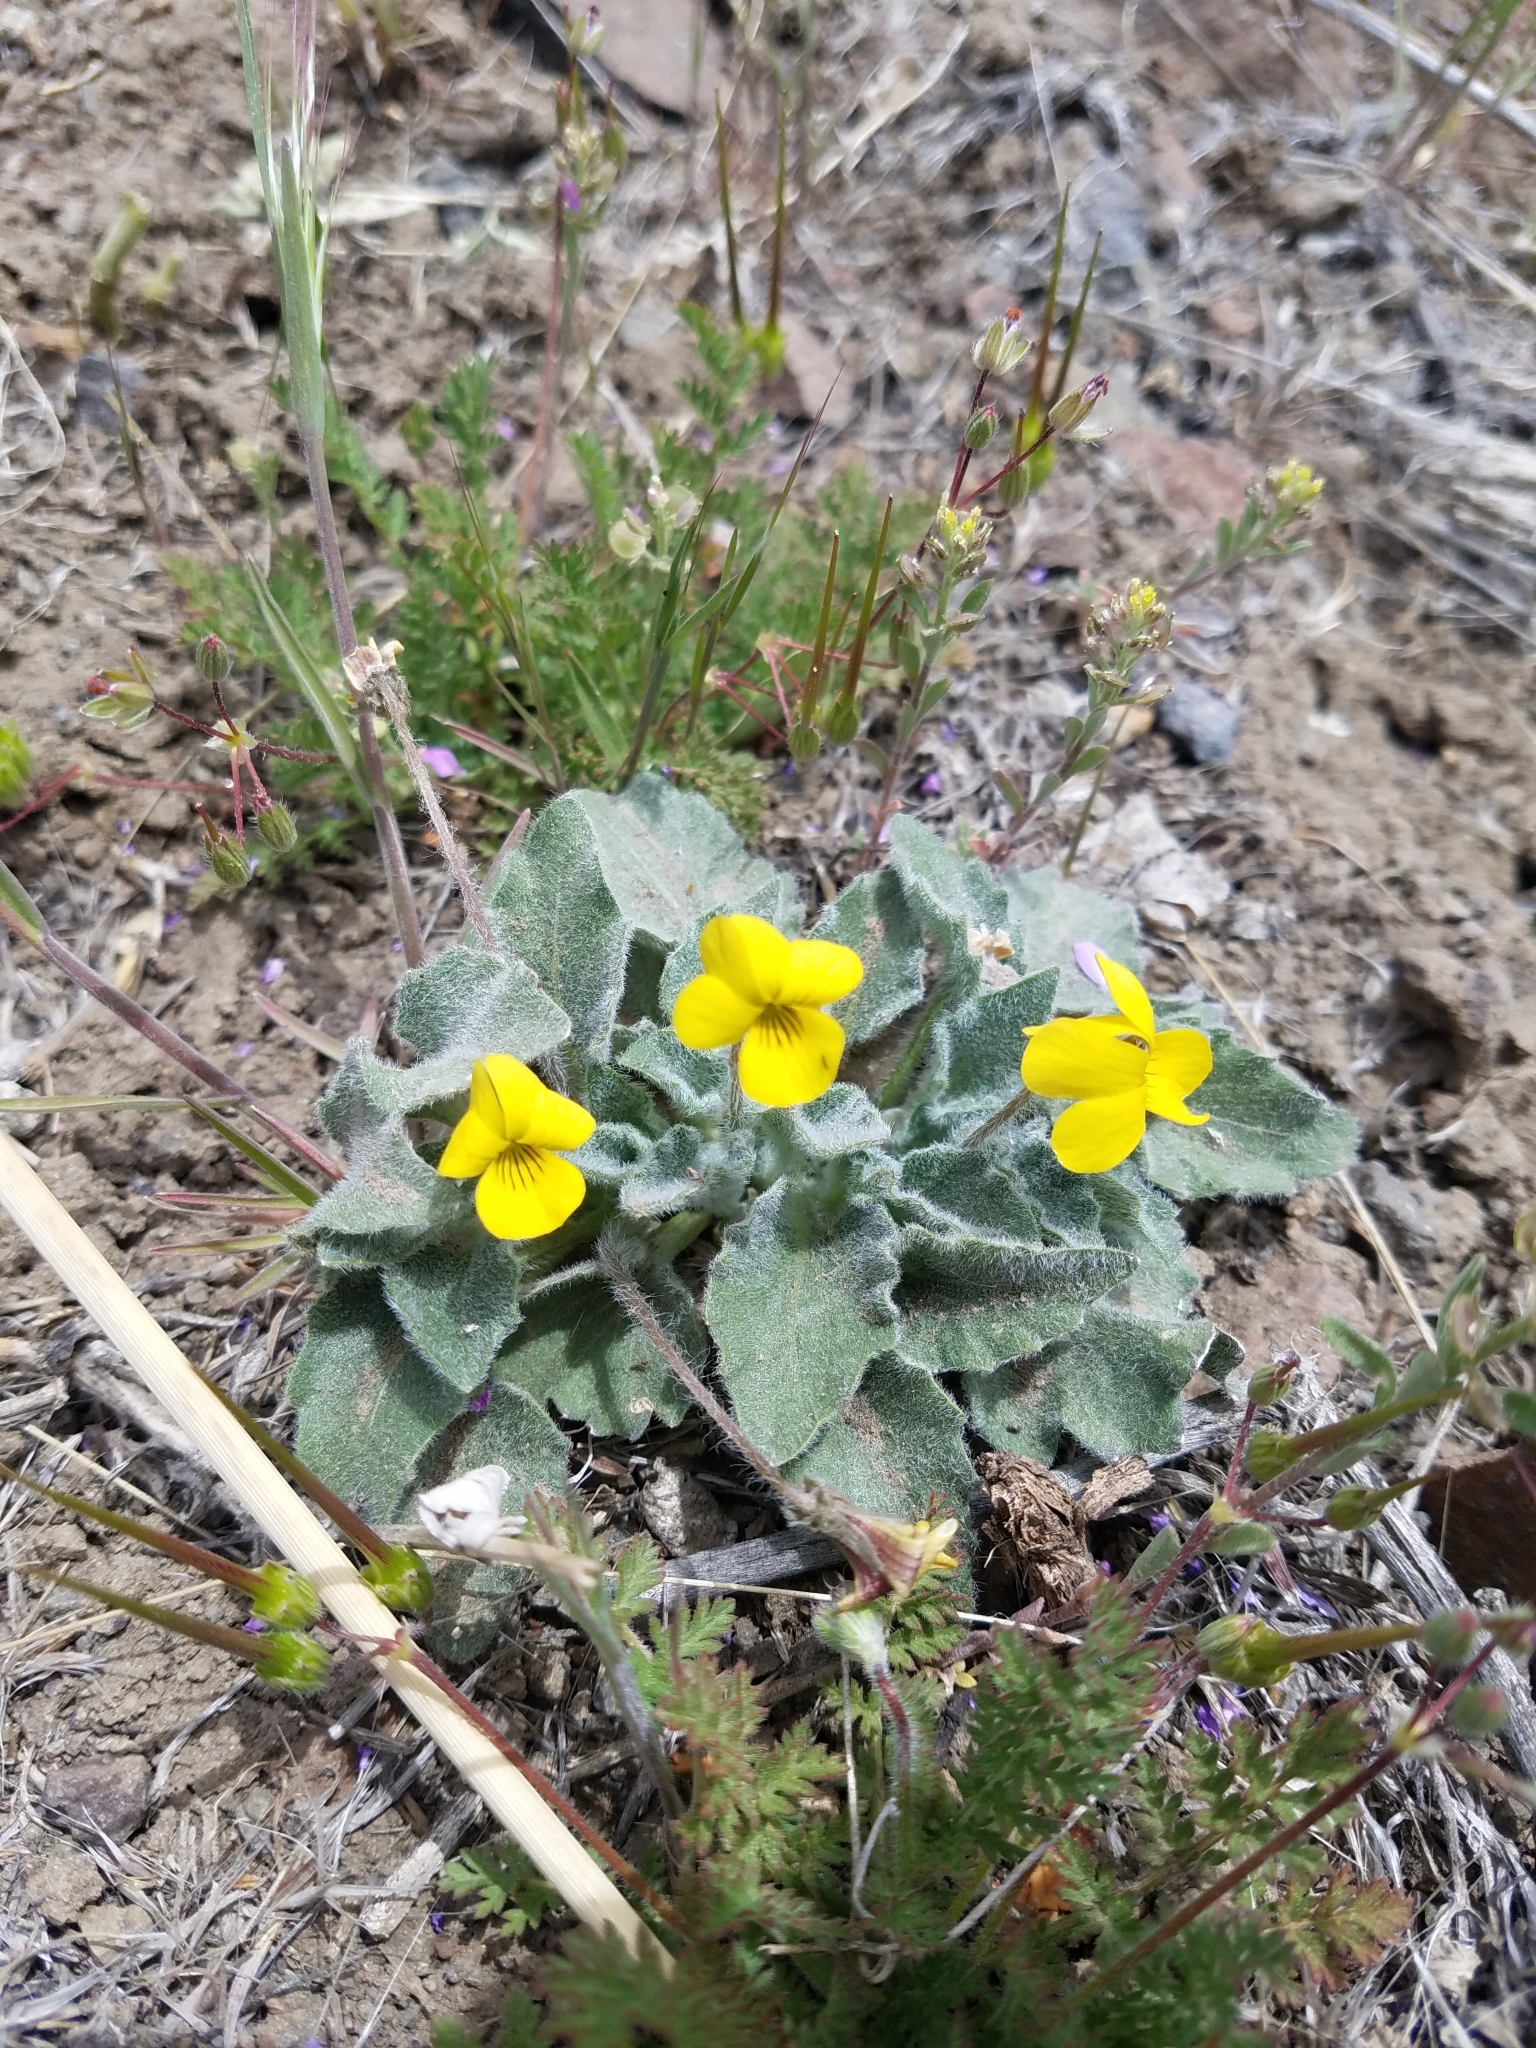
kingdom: Plantae
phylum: Tracheophyta
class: Magnoliopsida
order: Malpighiales
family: Violaceae
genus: Viola
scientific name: Viola aurea
